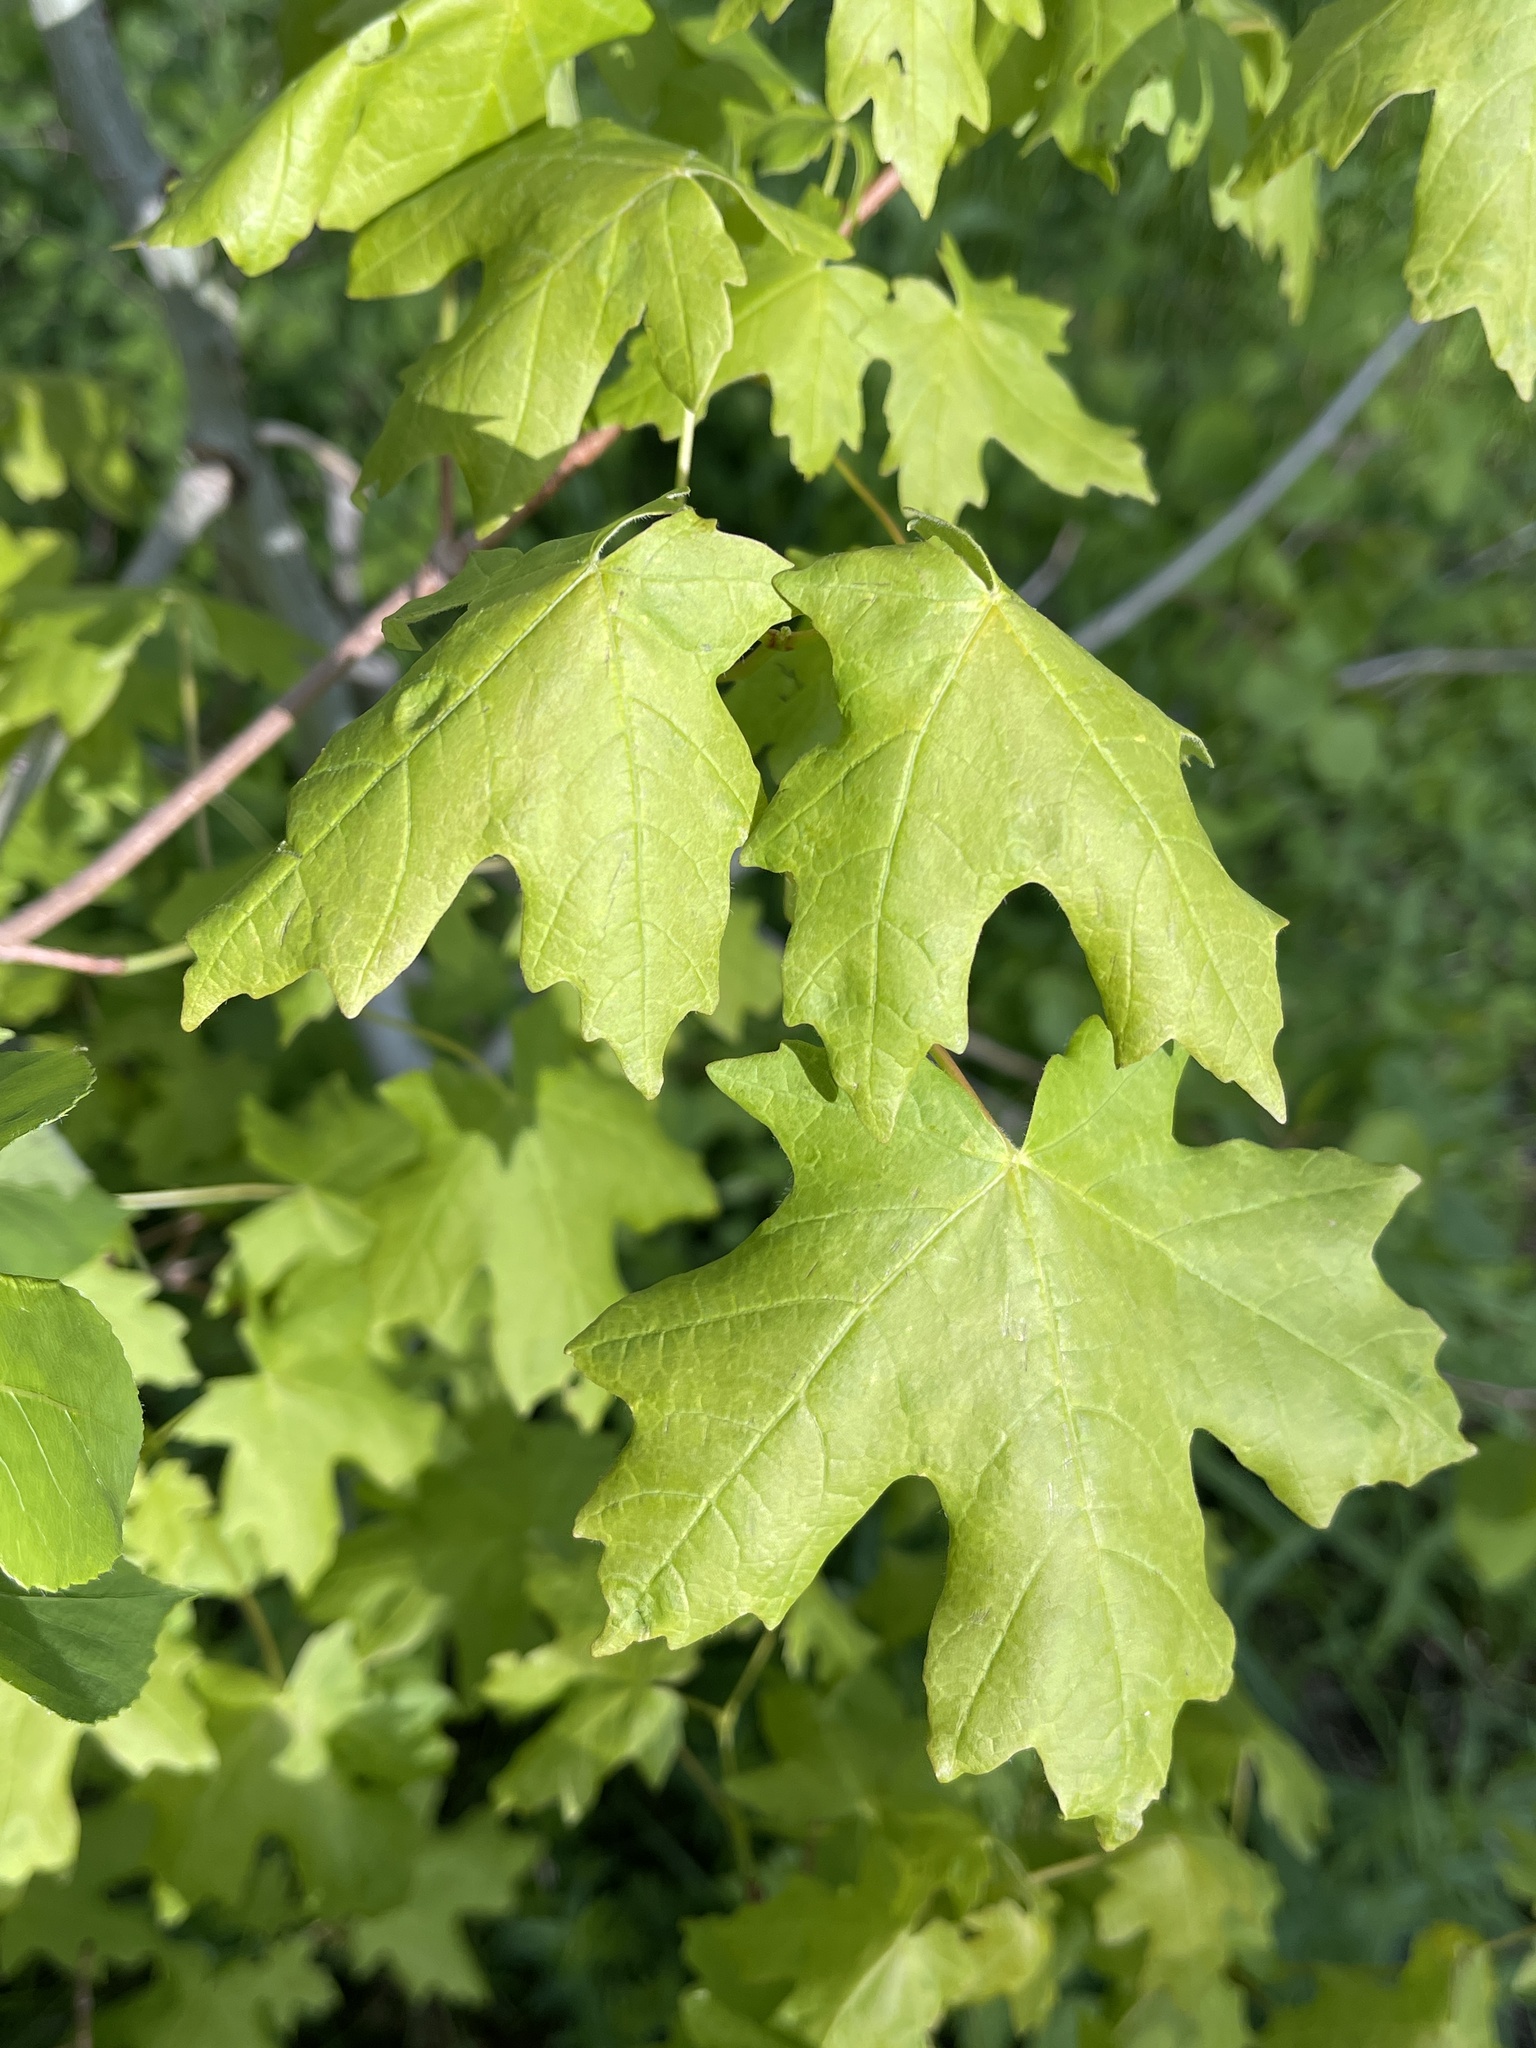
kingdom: Plantae
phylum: Tracheophyta
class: Magnoliopsida
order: Sapindales
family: Sapindaceae
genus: Acer
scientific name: Acer grandidentatum
